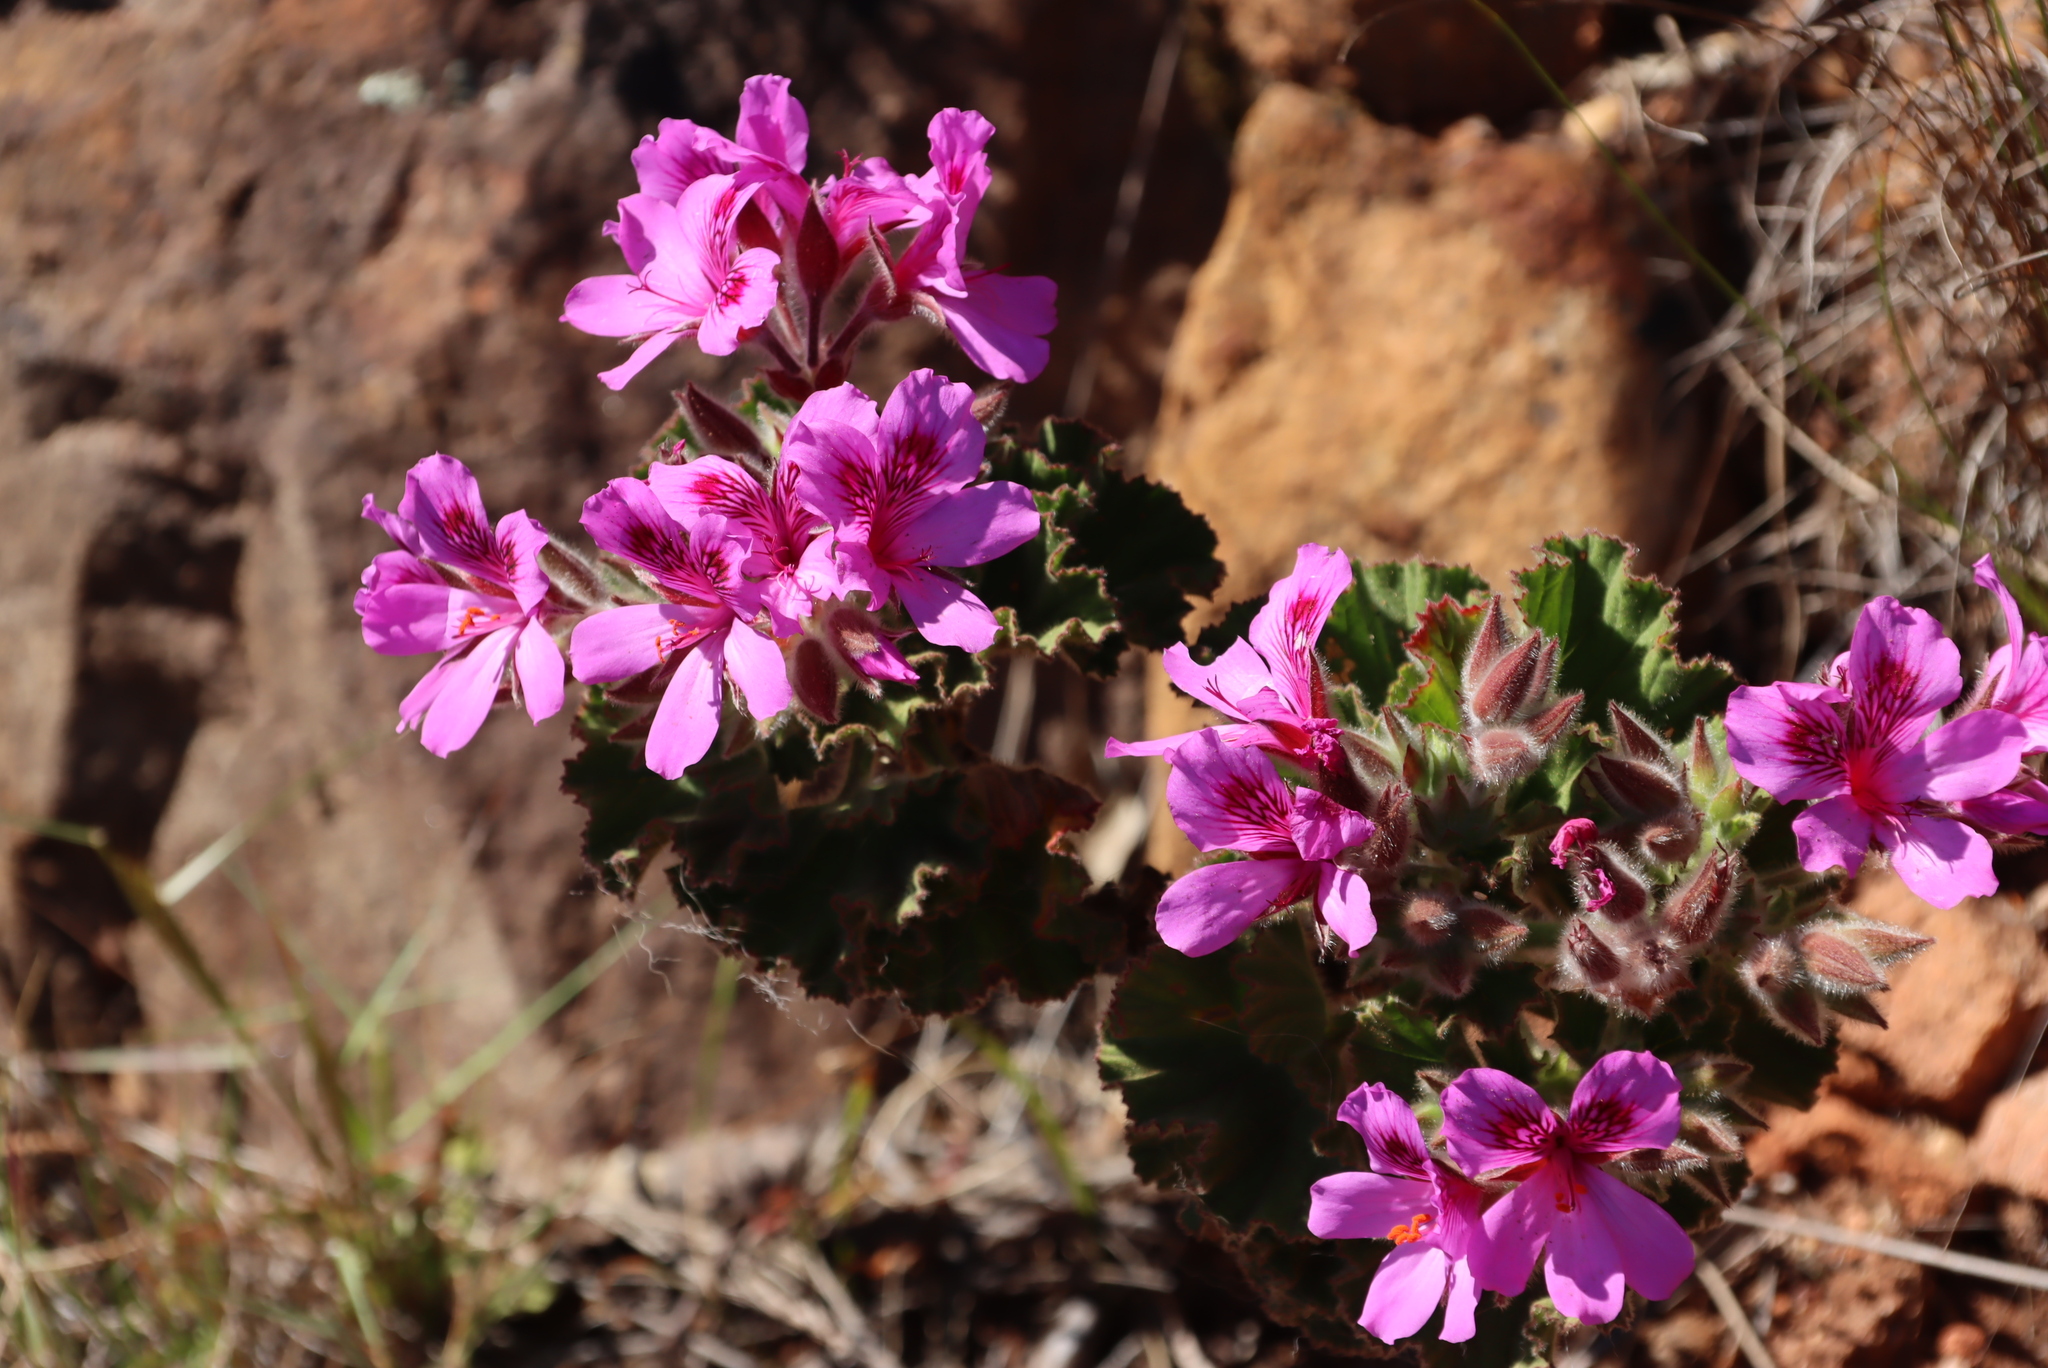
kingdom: Plantae
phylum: Tracheophyta
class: Magnoliopsida
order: Geraniales
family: Geraniaceae
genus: Pelargonium
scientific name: Pelargonium cucullatum
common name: Tree pelargonium
